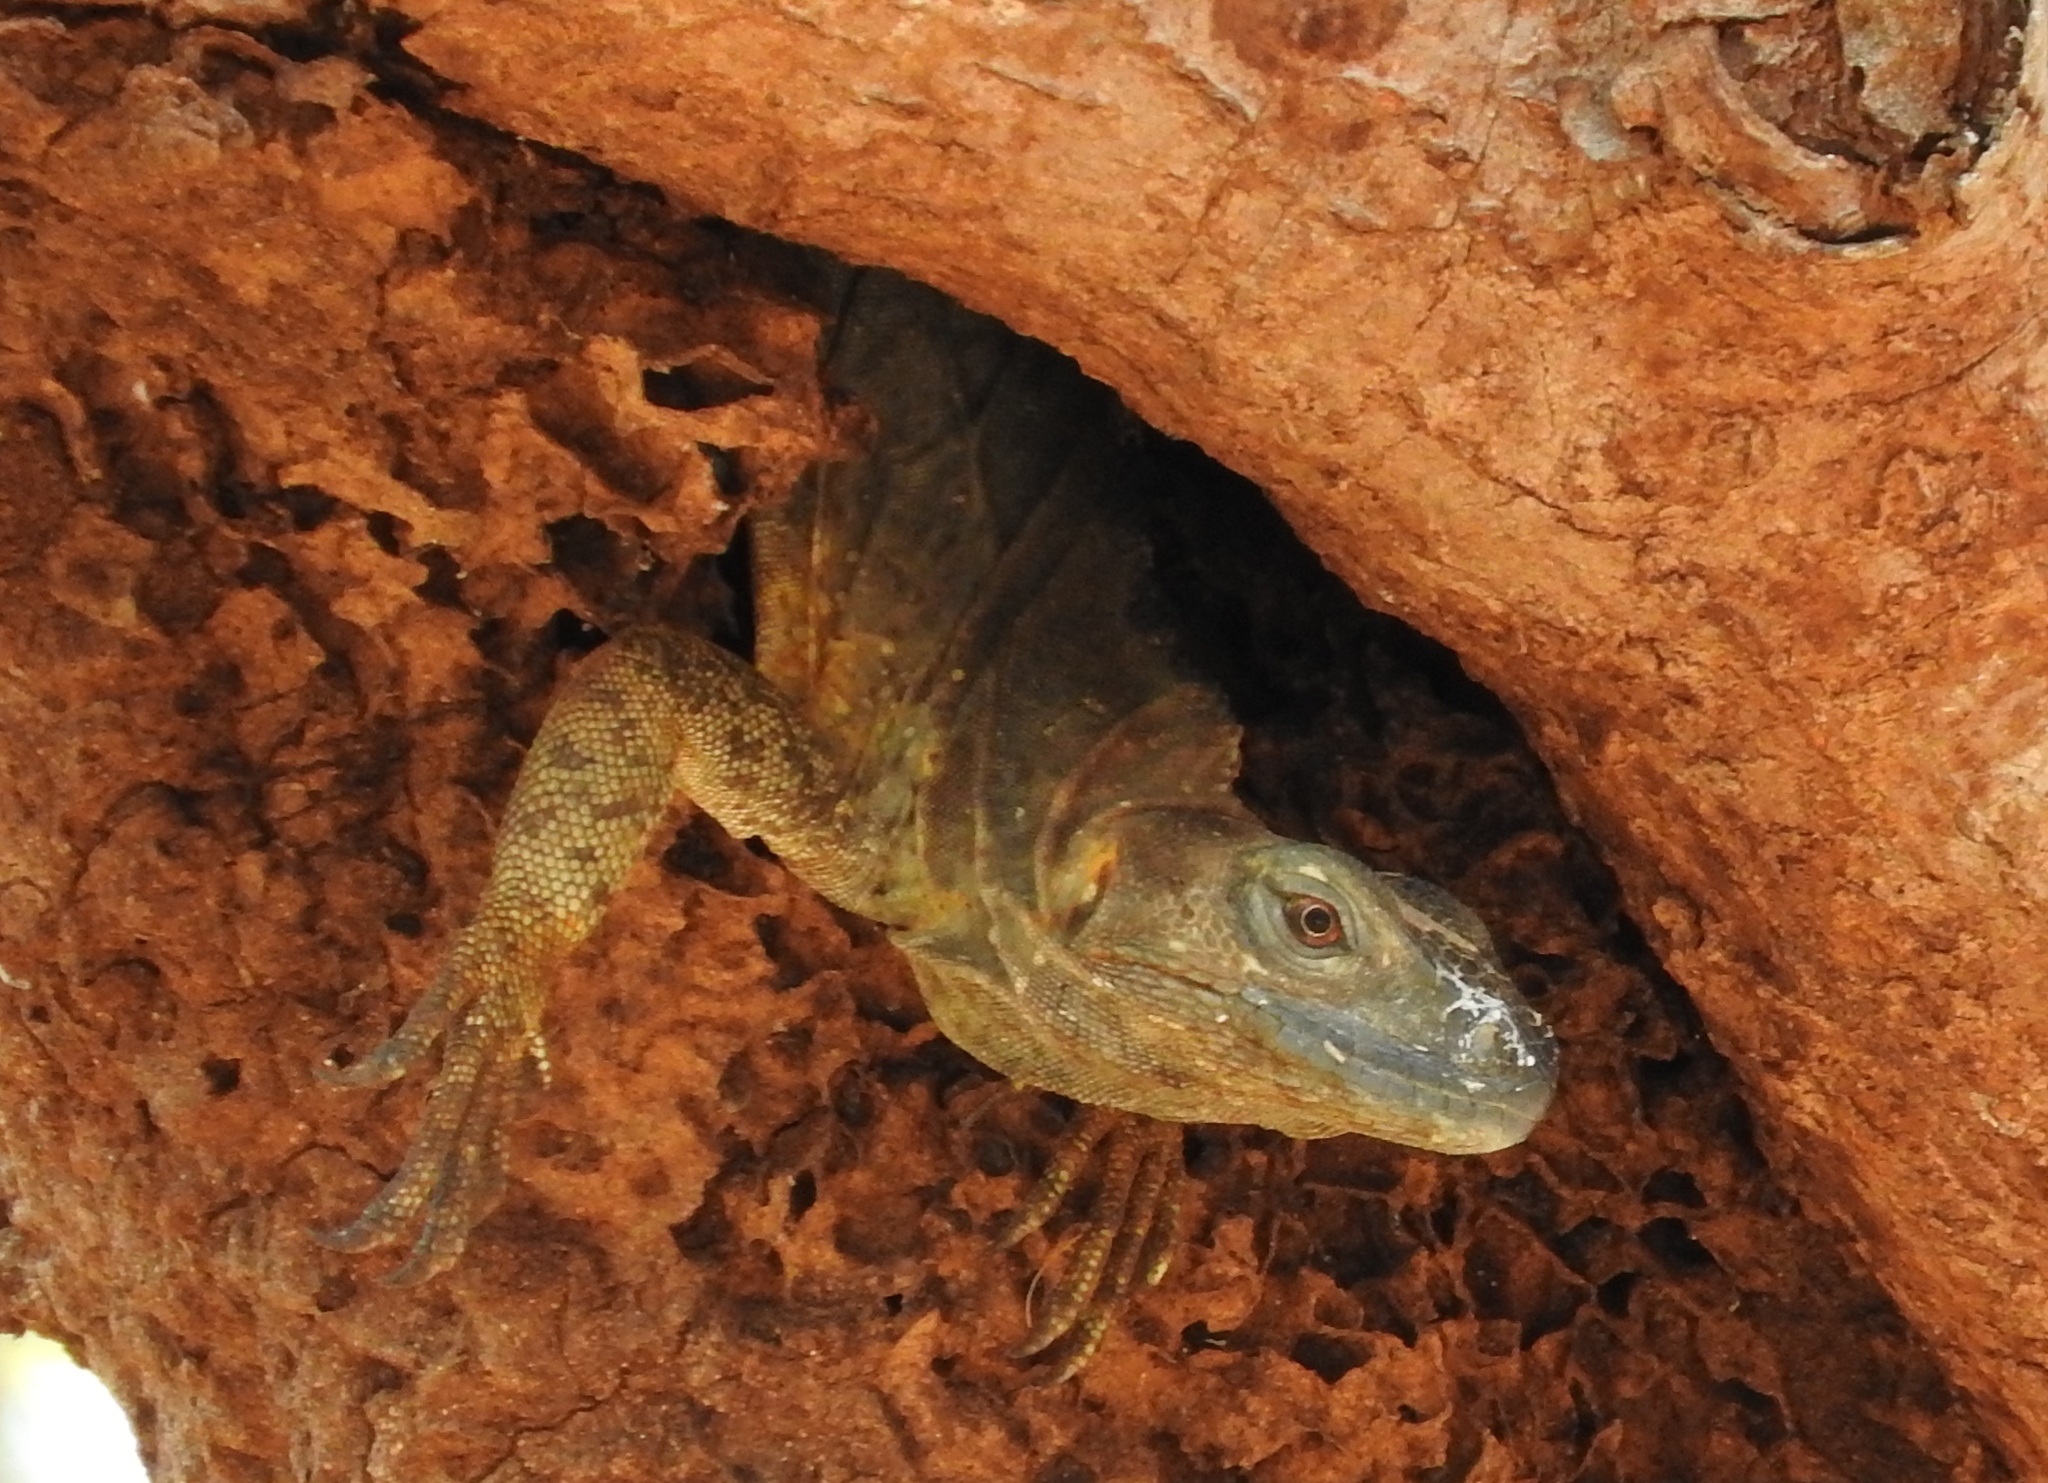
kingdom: Animalia
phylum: Chordata
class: Squamata
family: Iguanidae
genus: Ctenosaura
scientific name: Ctenosaura pectinata
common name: Guerreran spiny-tailed iguana
